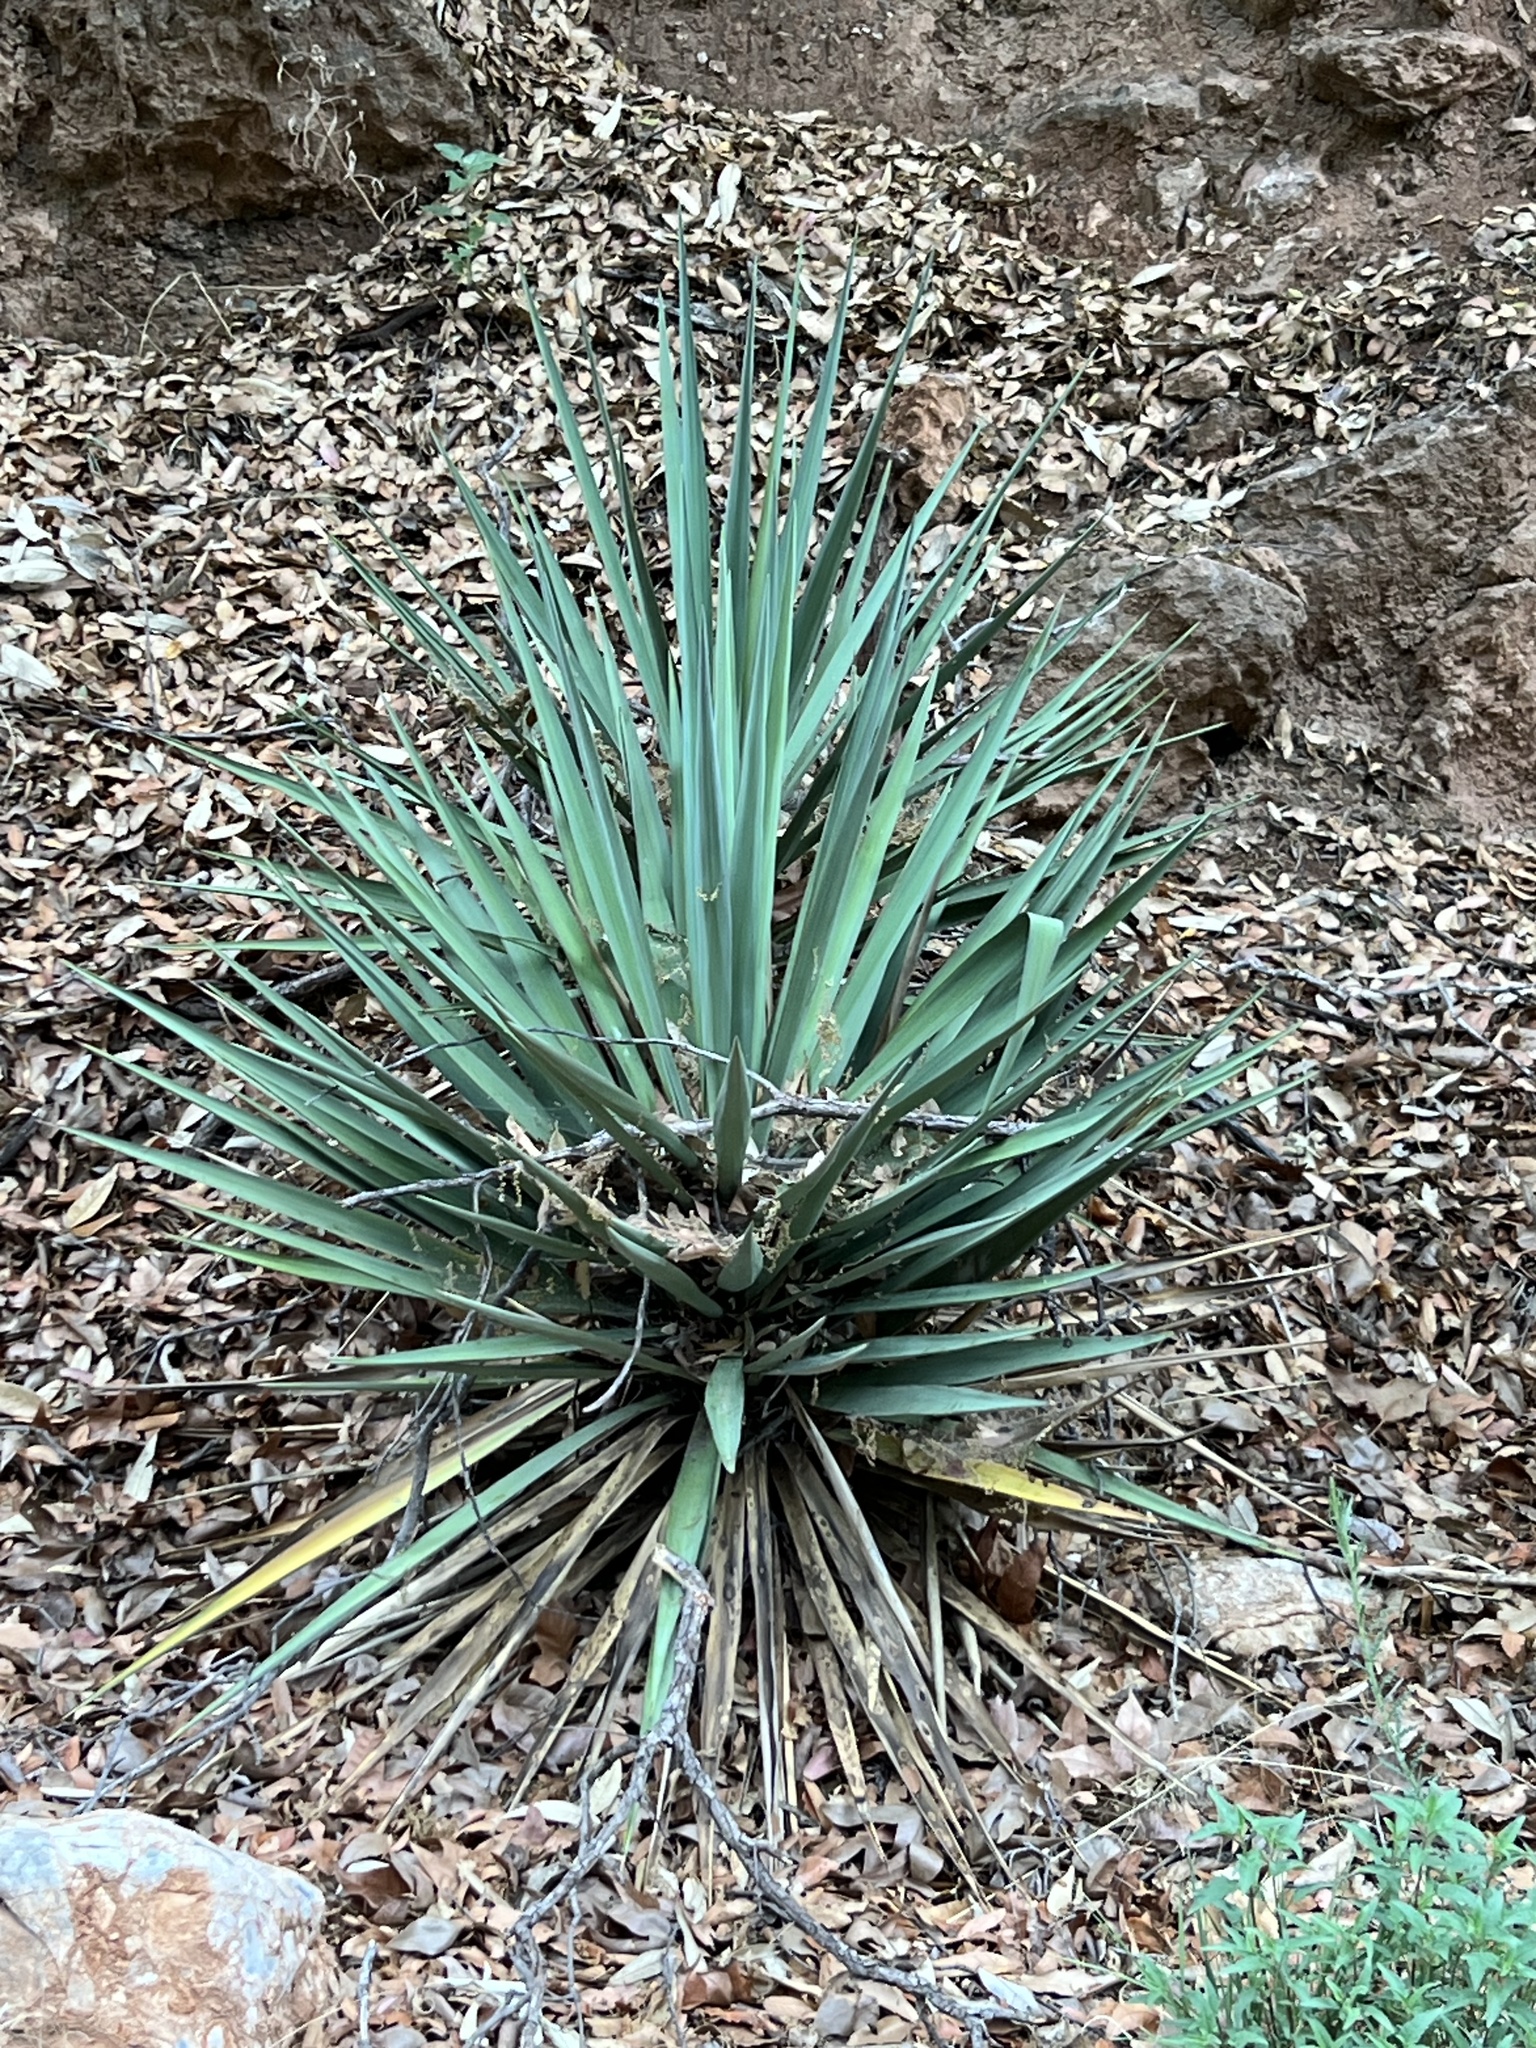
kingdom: Plantae
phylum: Tracheophyta
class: Liliopsida
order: Asparagales
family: Asparagaceae
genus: Yucca
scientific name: Yucca schottii
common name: Hoary yucca
